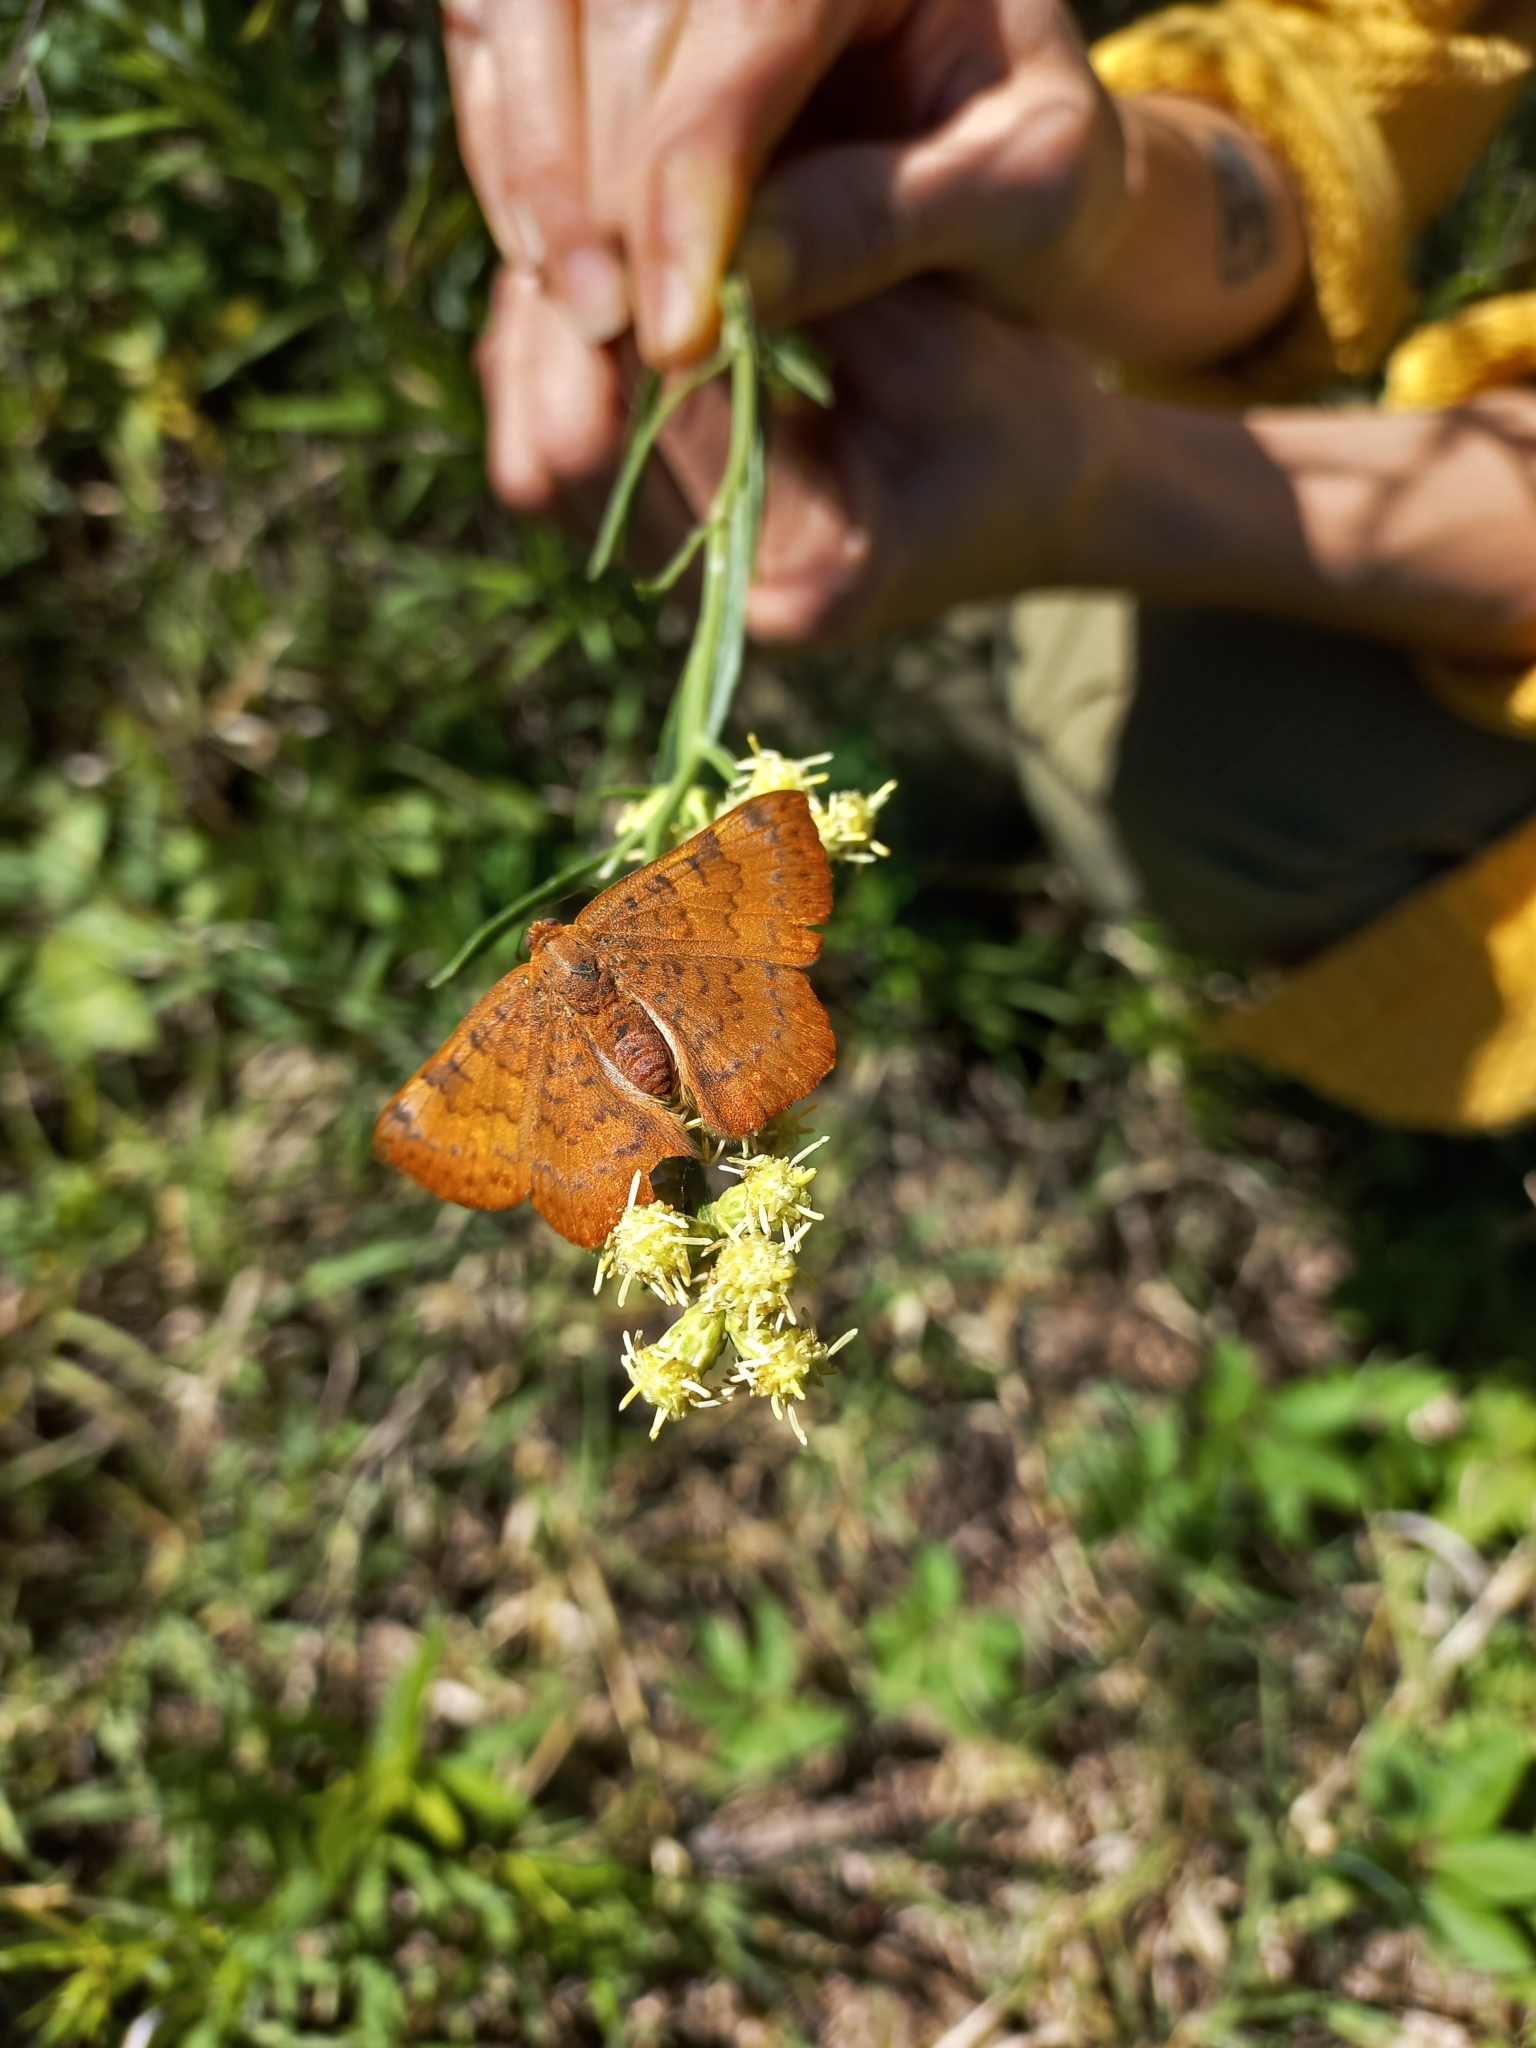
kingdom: Animalia
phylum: Arthropoda
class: Insecta
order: Lepidoptera
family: Lycaenidae
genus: Emesis
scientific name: Emesis russula
